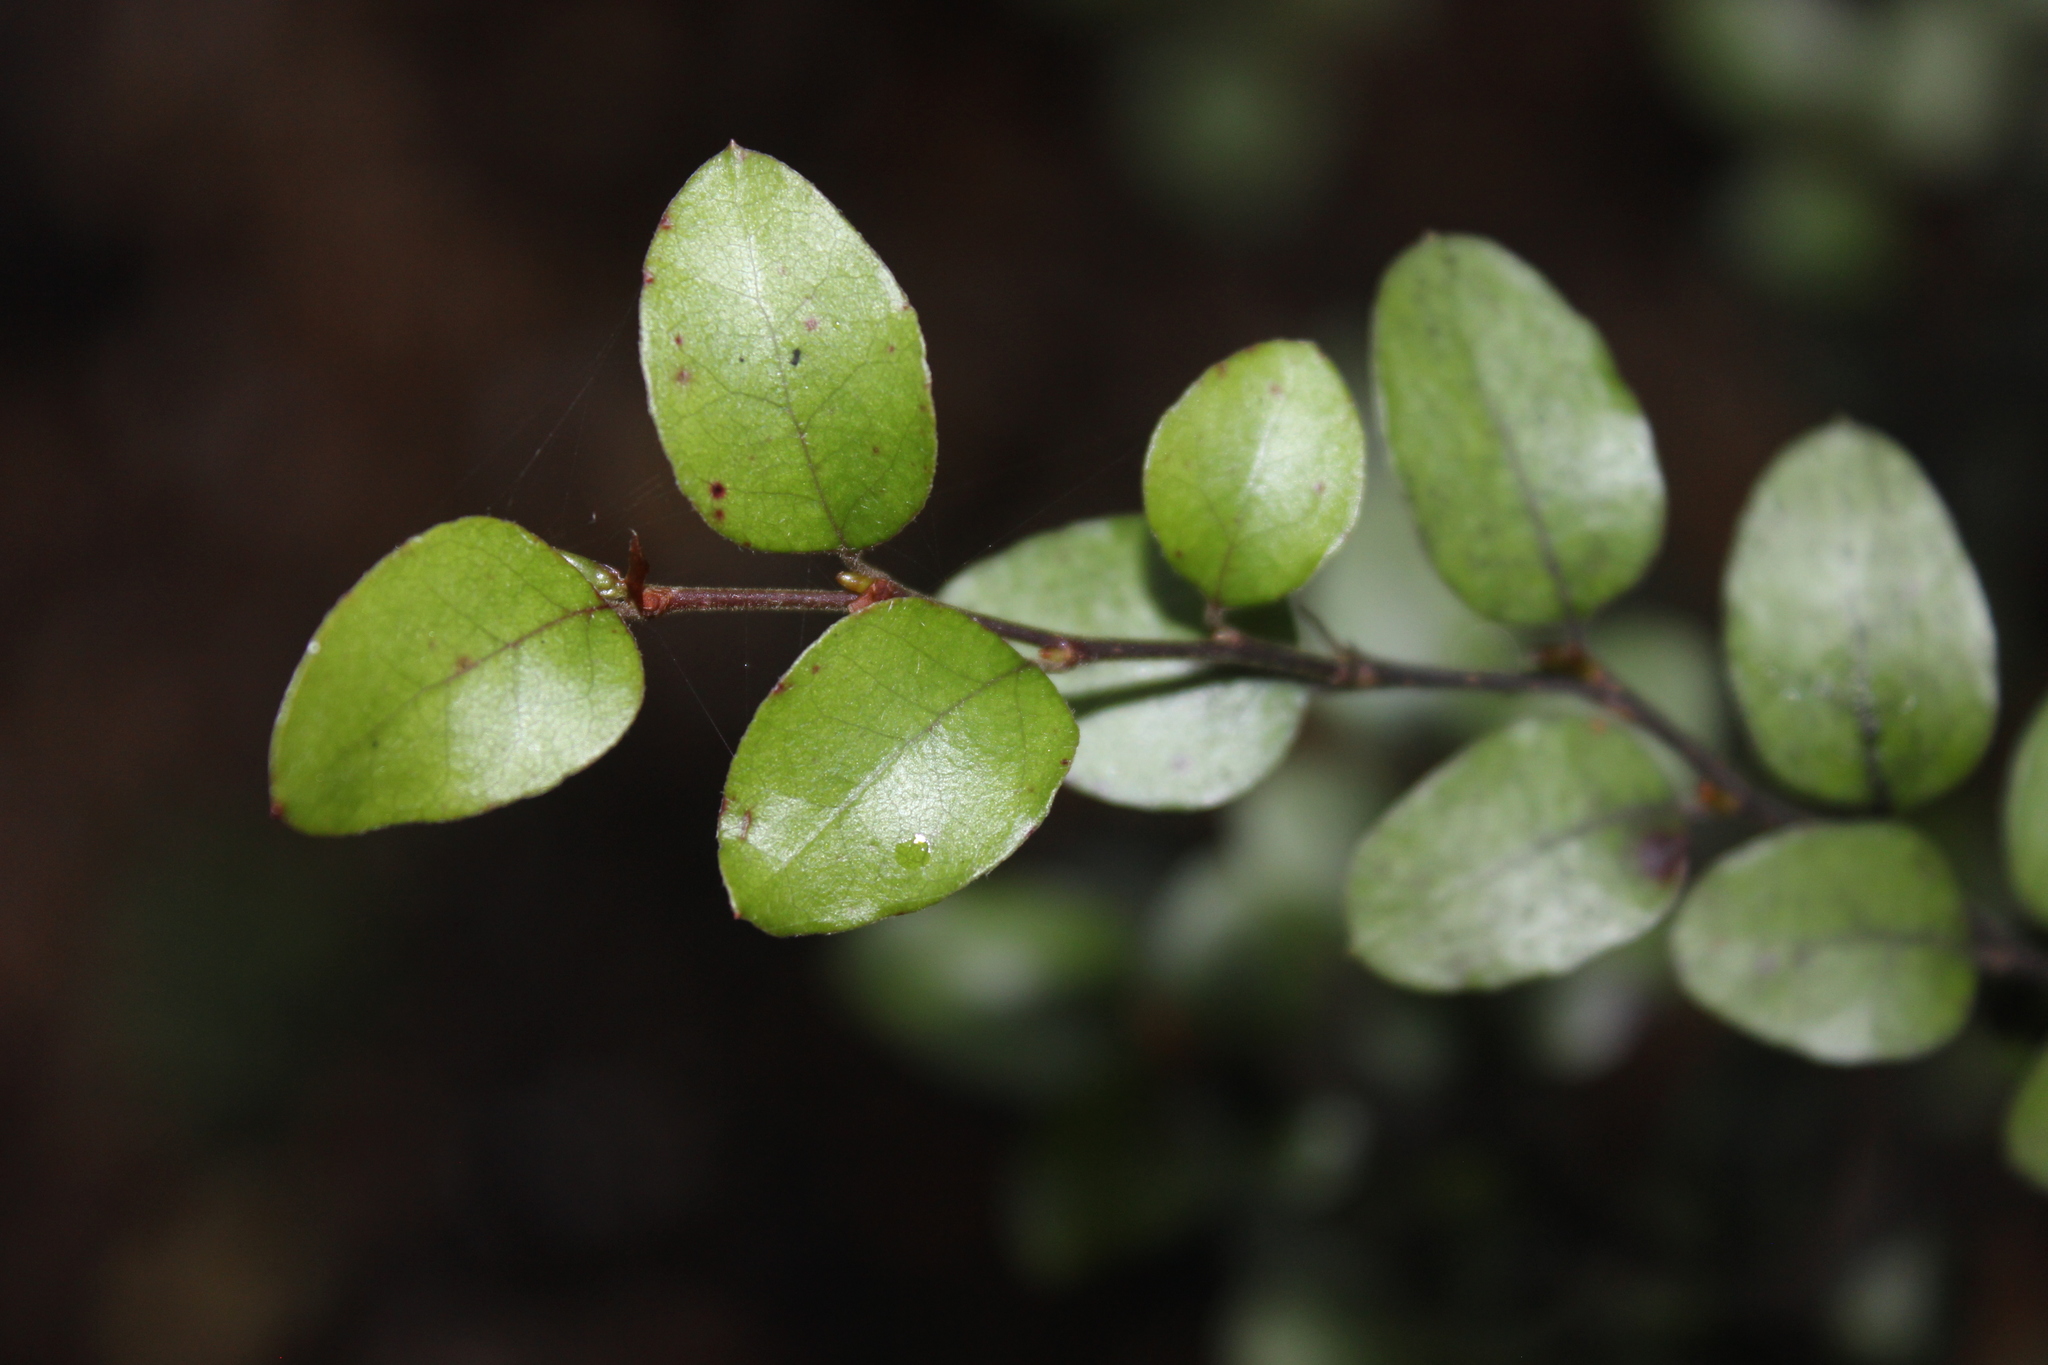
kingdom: Plantae
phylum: Tracheophyta
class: Magnoliopsida
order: Fagales
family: Nothofagaceae
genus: Nothofagus
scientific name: Nothofagus blairii
